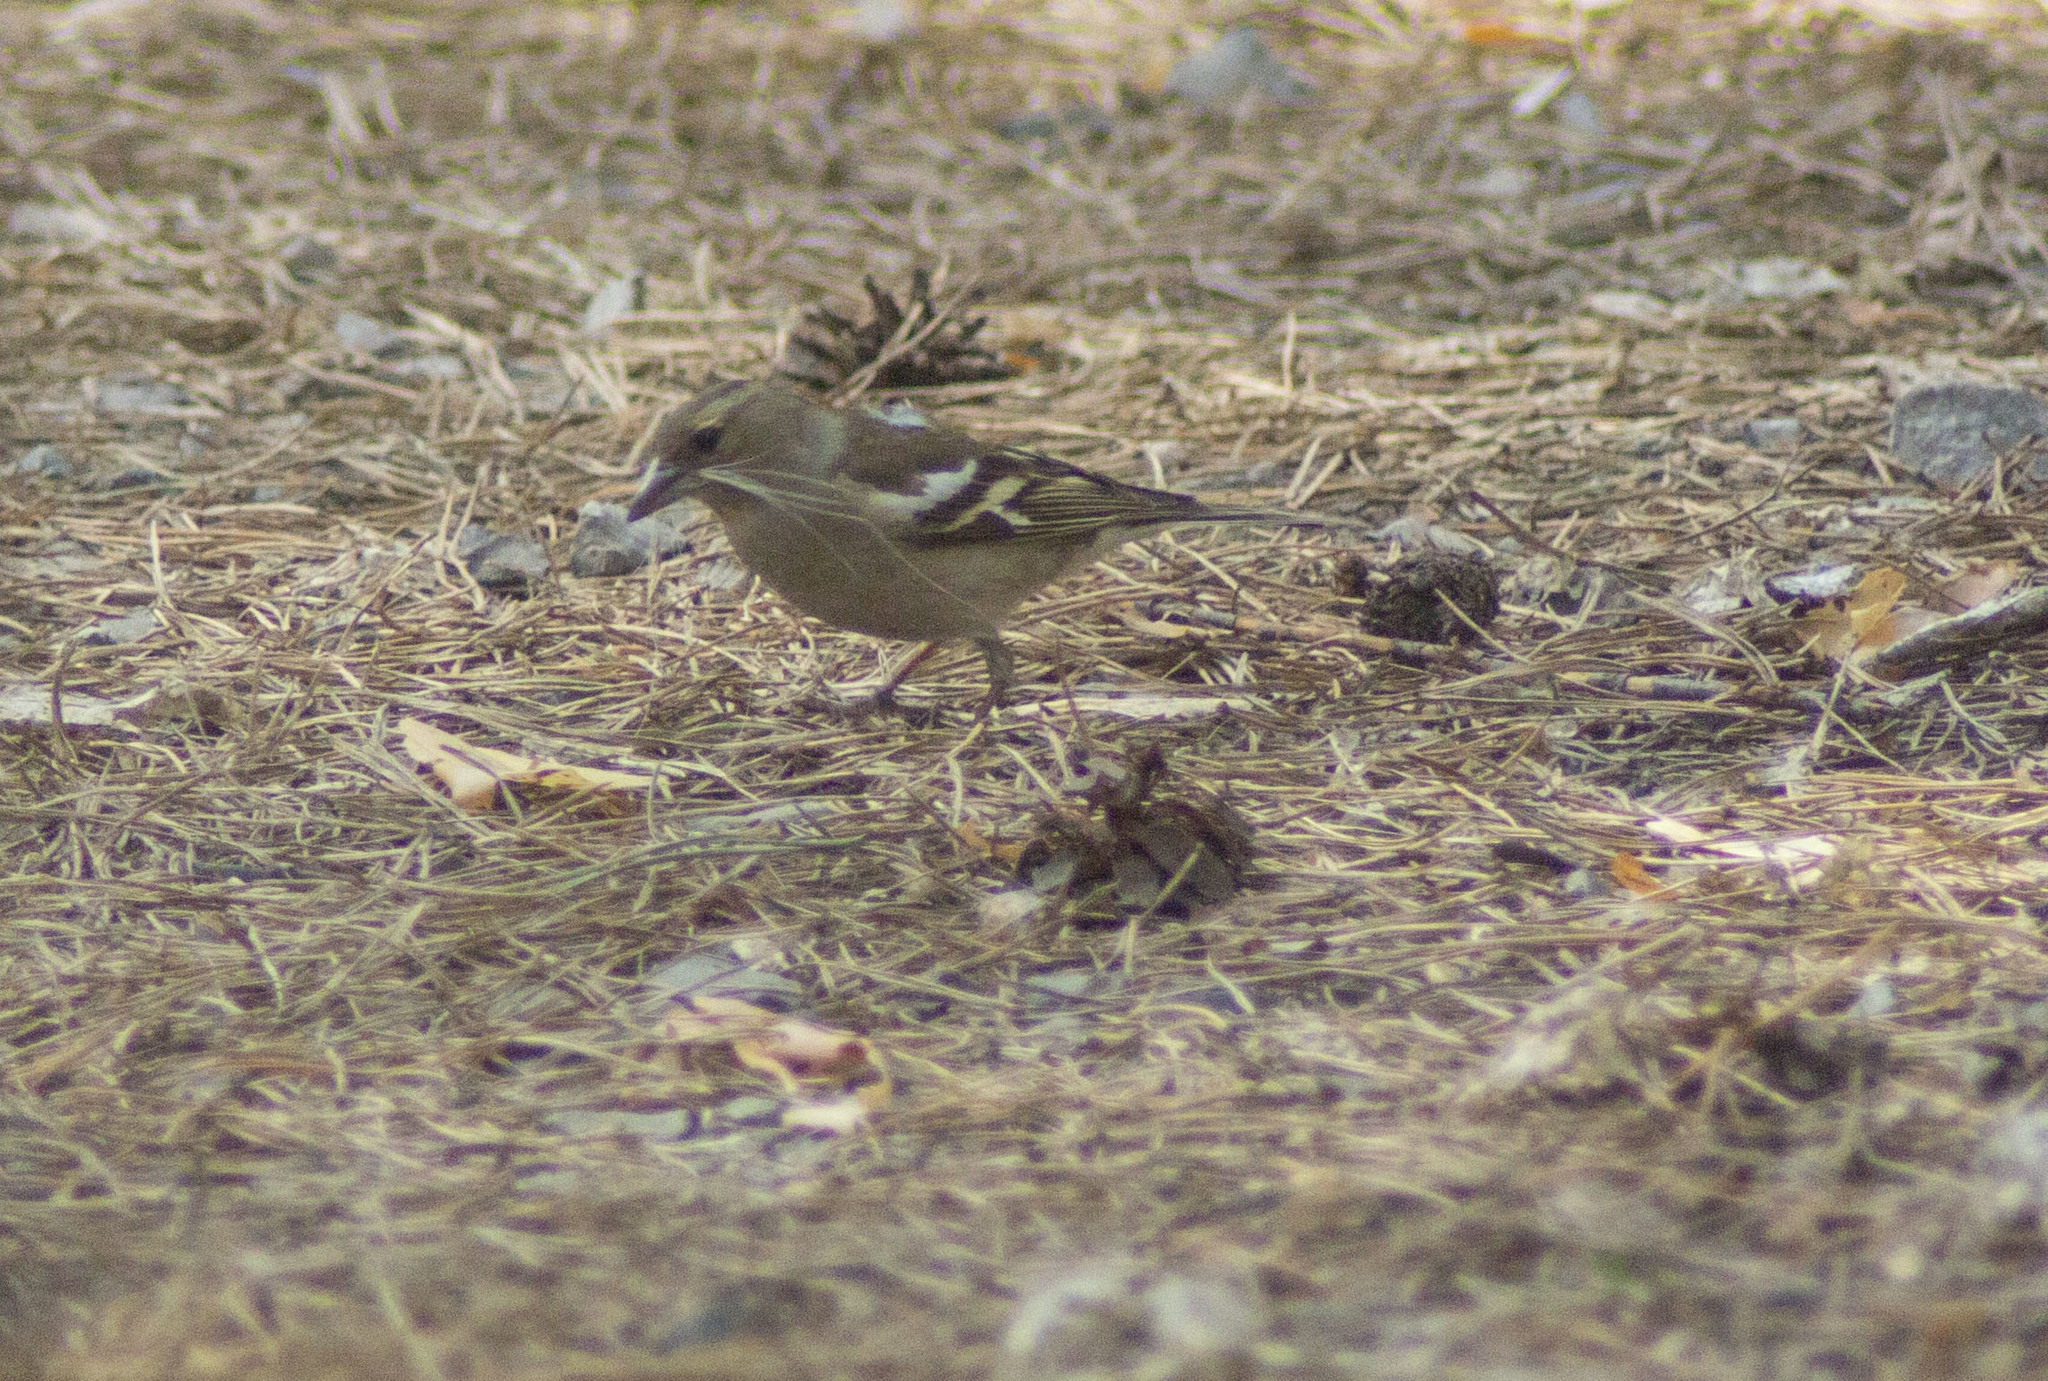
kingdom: Animalia
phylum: Chordata
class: Aves
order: Passeriformes
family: Fringillidae
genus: Fringilla
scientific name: Fringilla coelebs
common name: Common chaffinch
